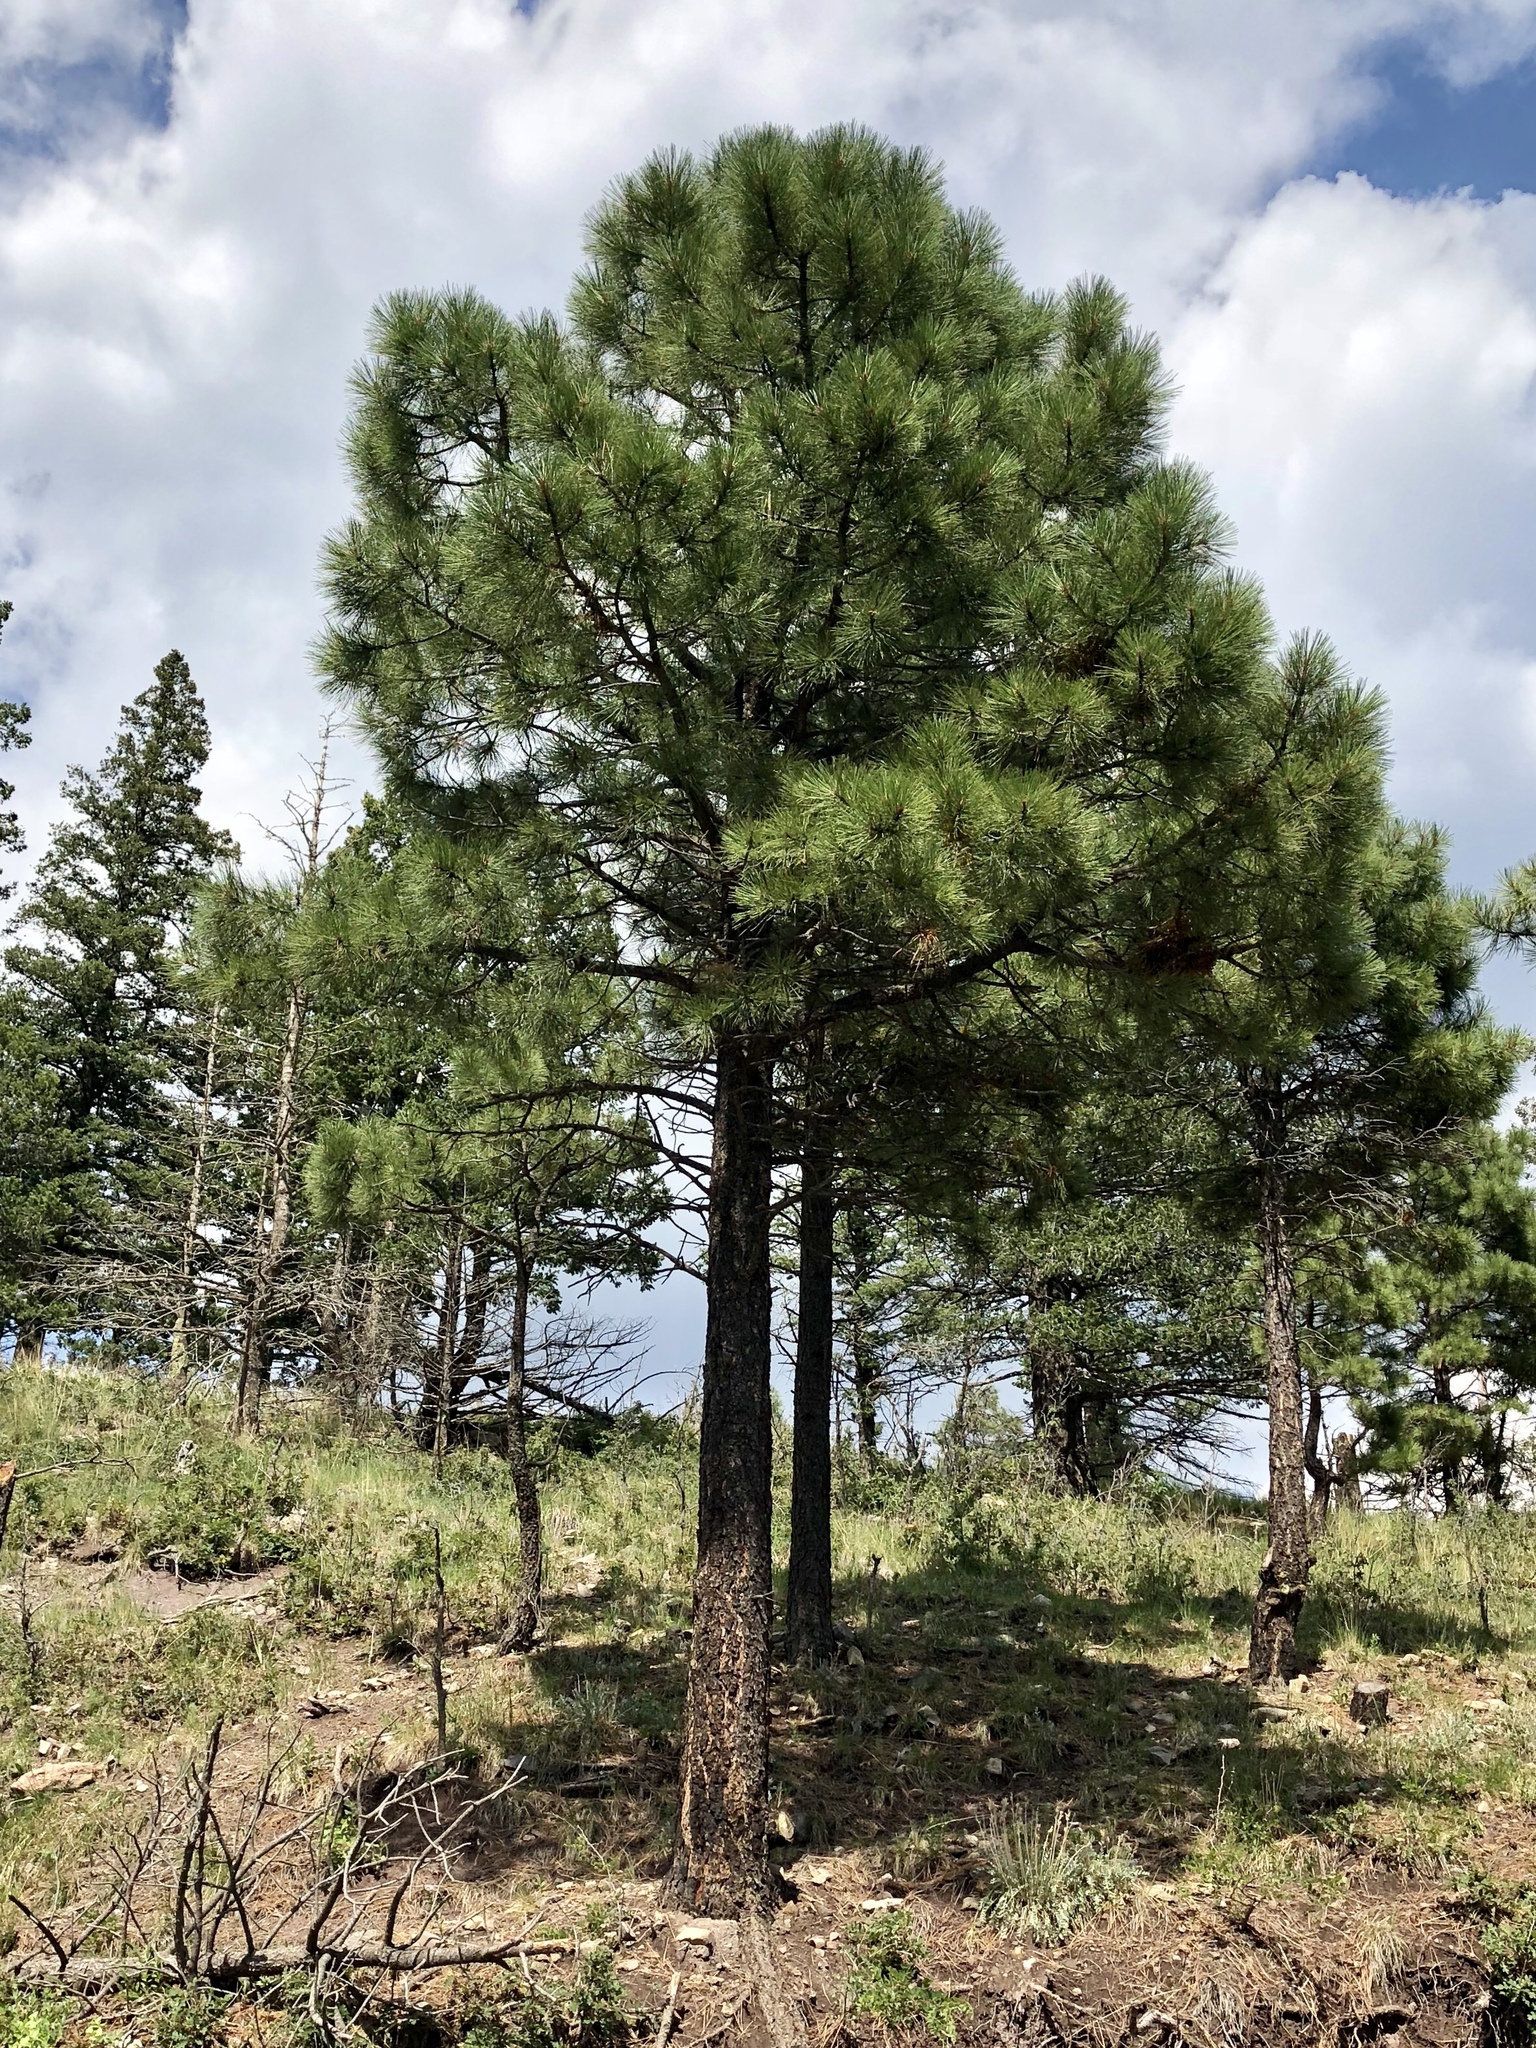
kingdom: Plantae
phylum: Tracheophyta
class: Pinopsida
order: Pinales
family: Pinaceae
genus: Pinus
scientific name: Pinus ponderosa
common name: Western yellow-pine
